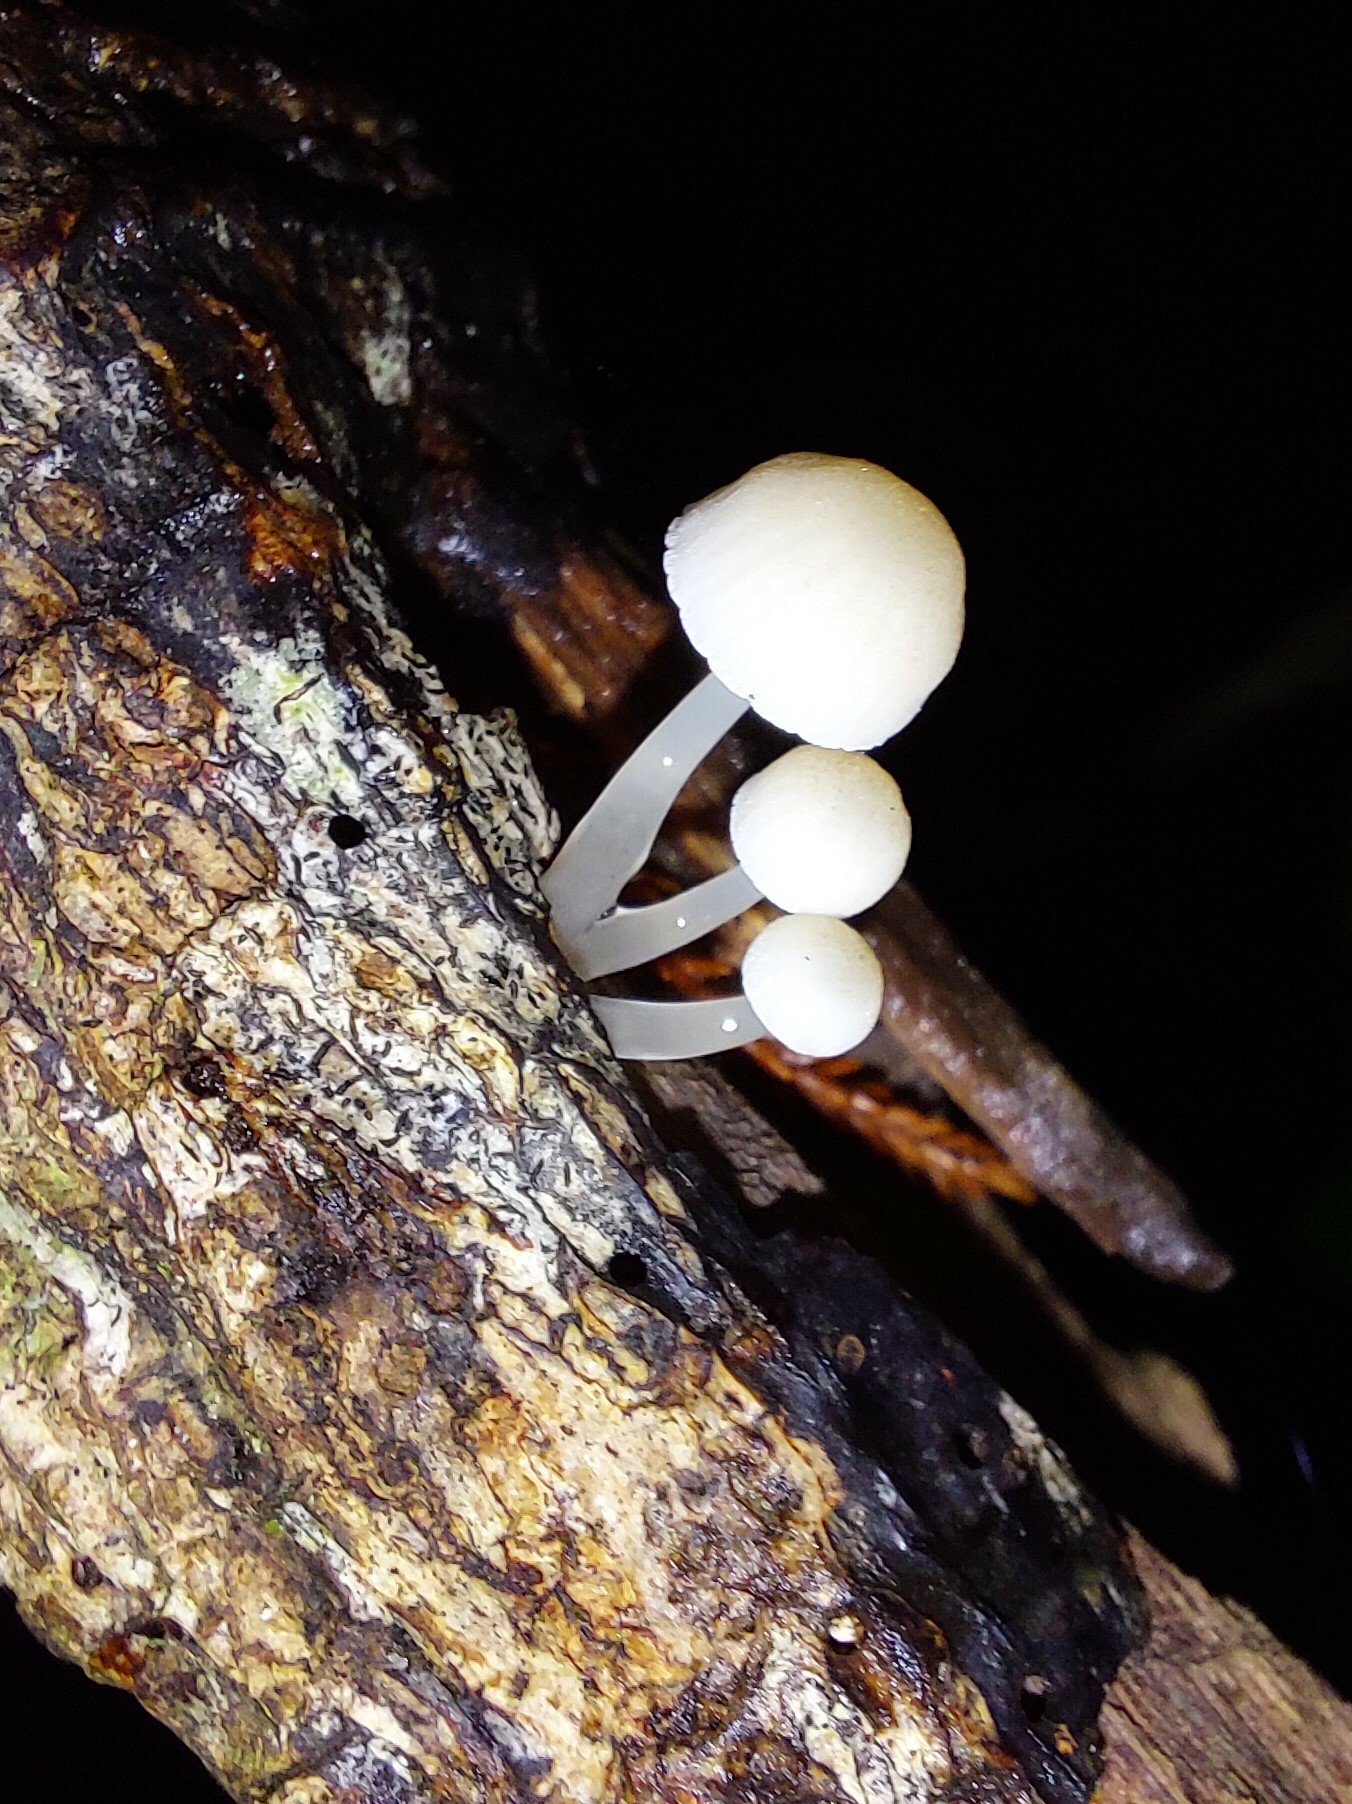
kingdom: Fungi
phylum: Basidiomycota
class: Agaricomycetes
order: Agaricales
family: Mycenaceae
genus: Roridomyces
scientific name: Roridomyces austrororidus
